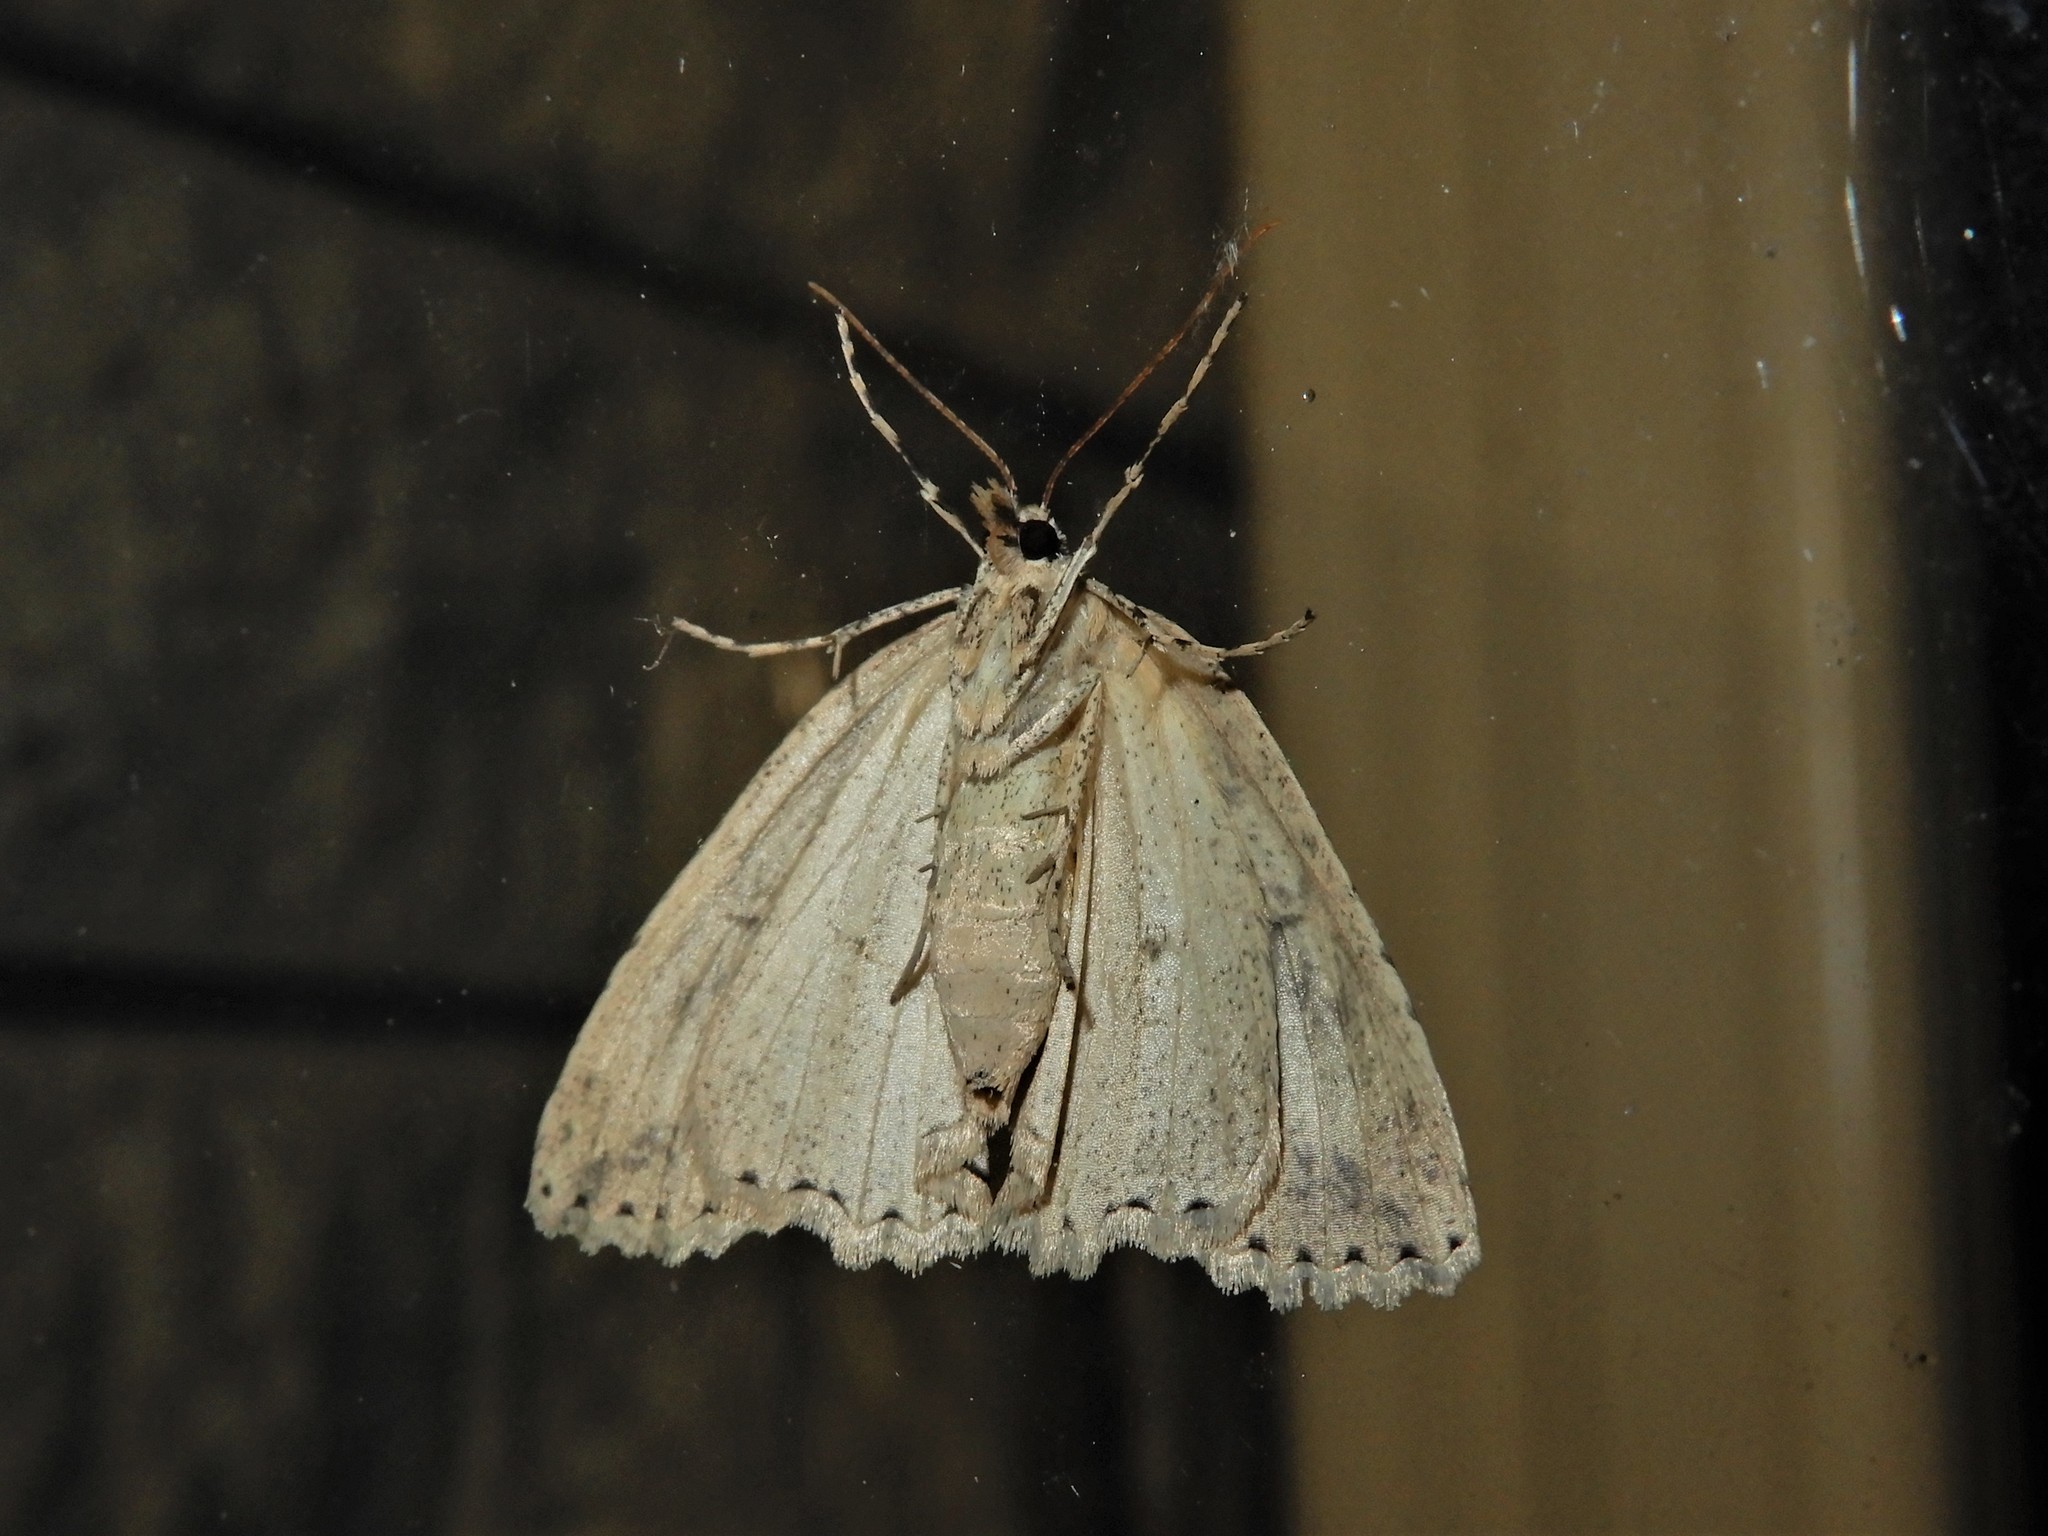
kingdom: Animalia
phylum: Arthropoda
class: Insecta
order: Lepidoptera
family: Geometridae
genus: Pseudocoremia
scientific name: Pseudocoremia rudisata
